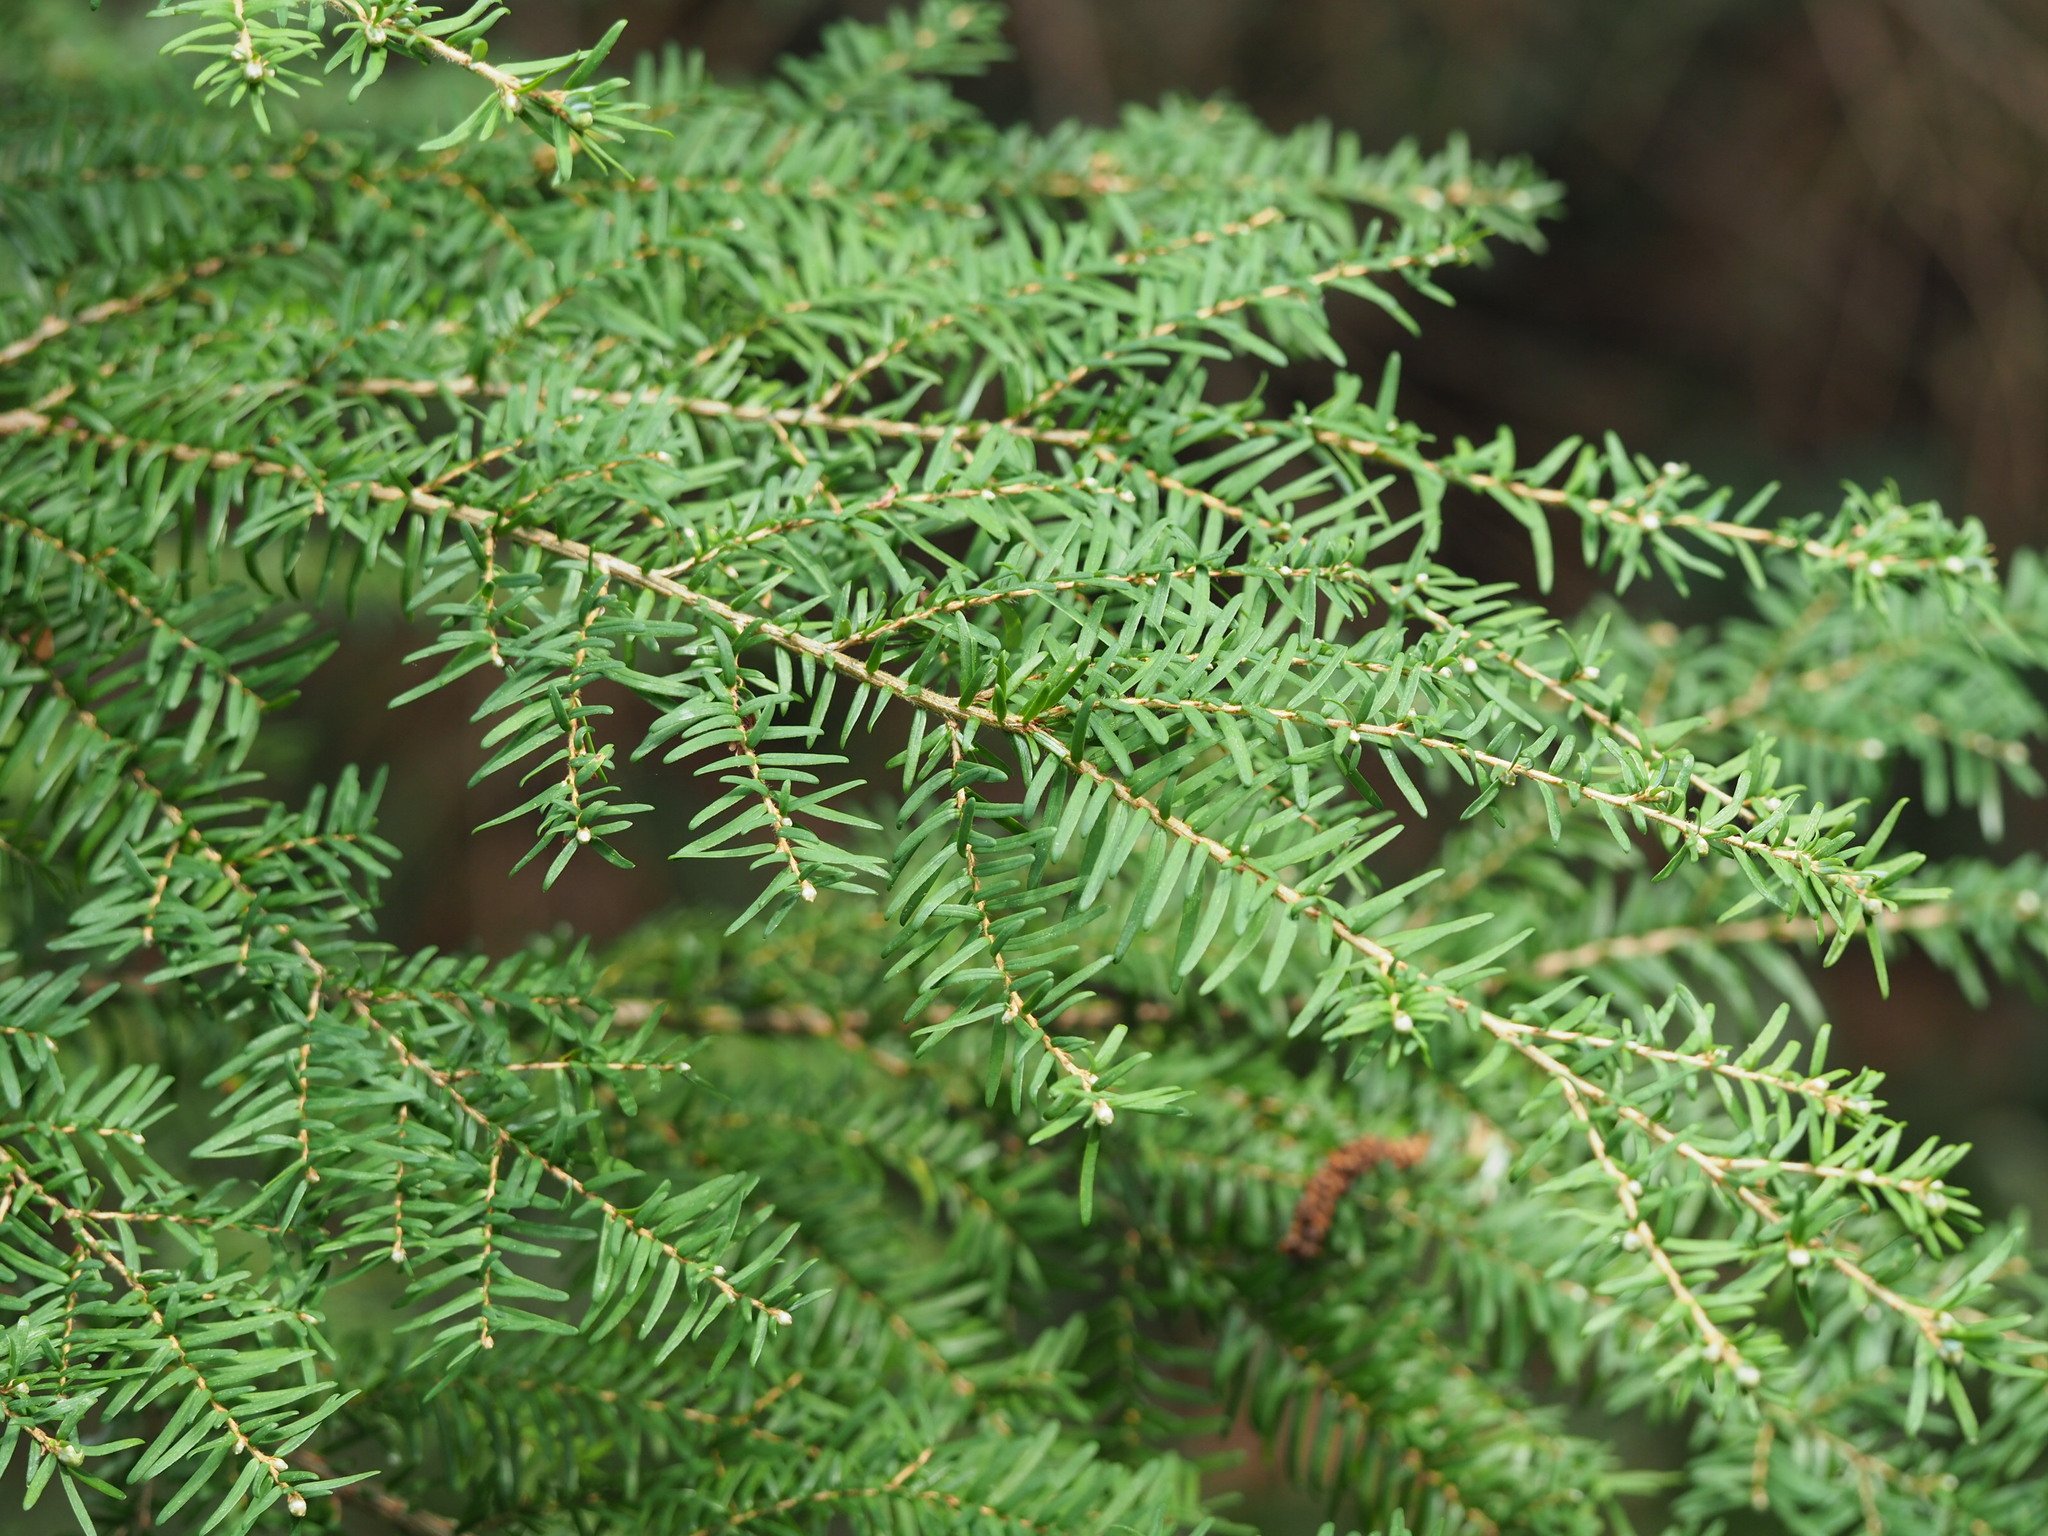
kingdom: Plantae
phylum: Tracheophyta
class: Pinopsida
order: Pinales
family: Pinaceae
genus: Tsuga
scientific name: Tsuga heterophylla
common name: Western hemlock
